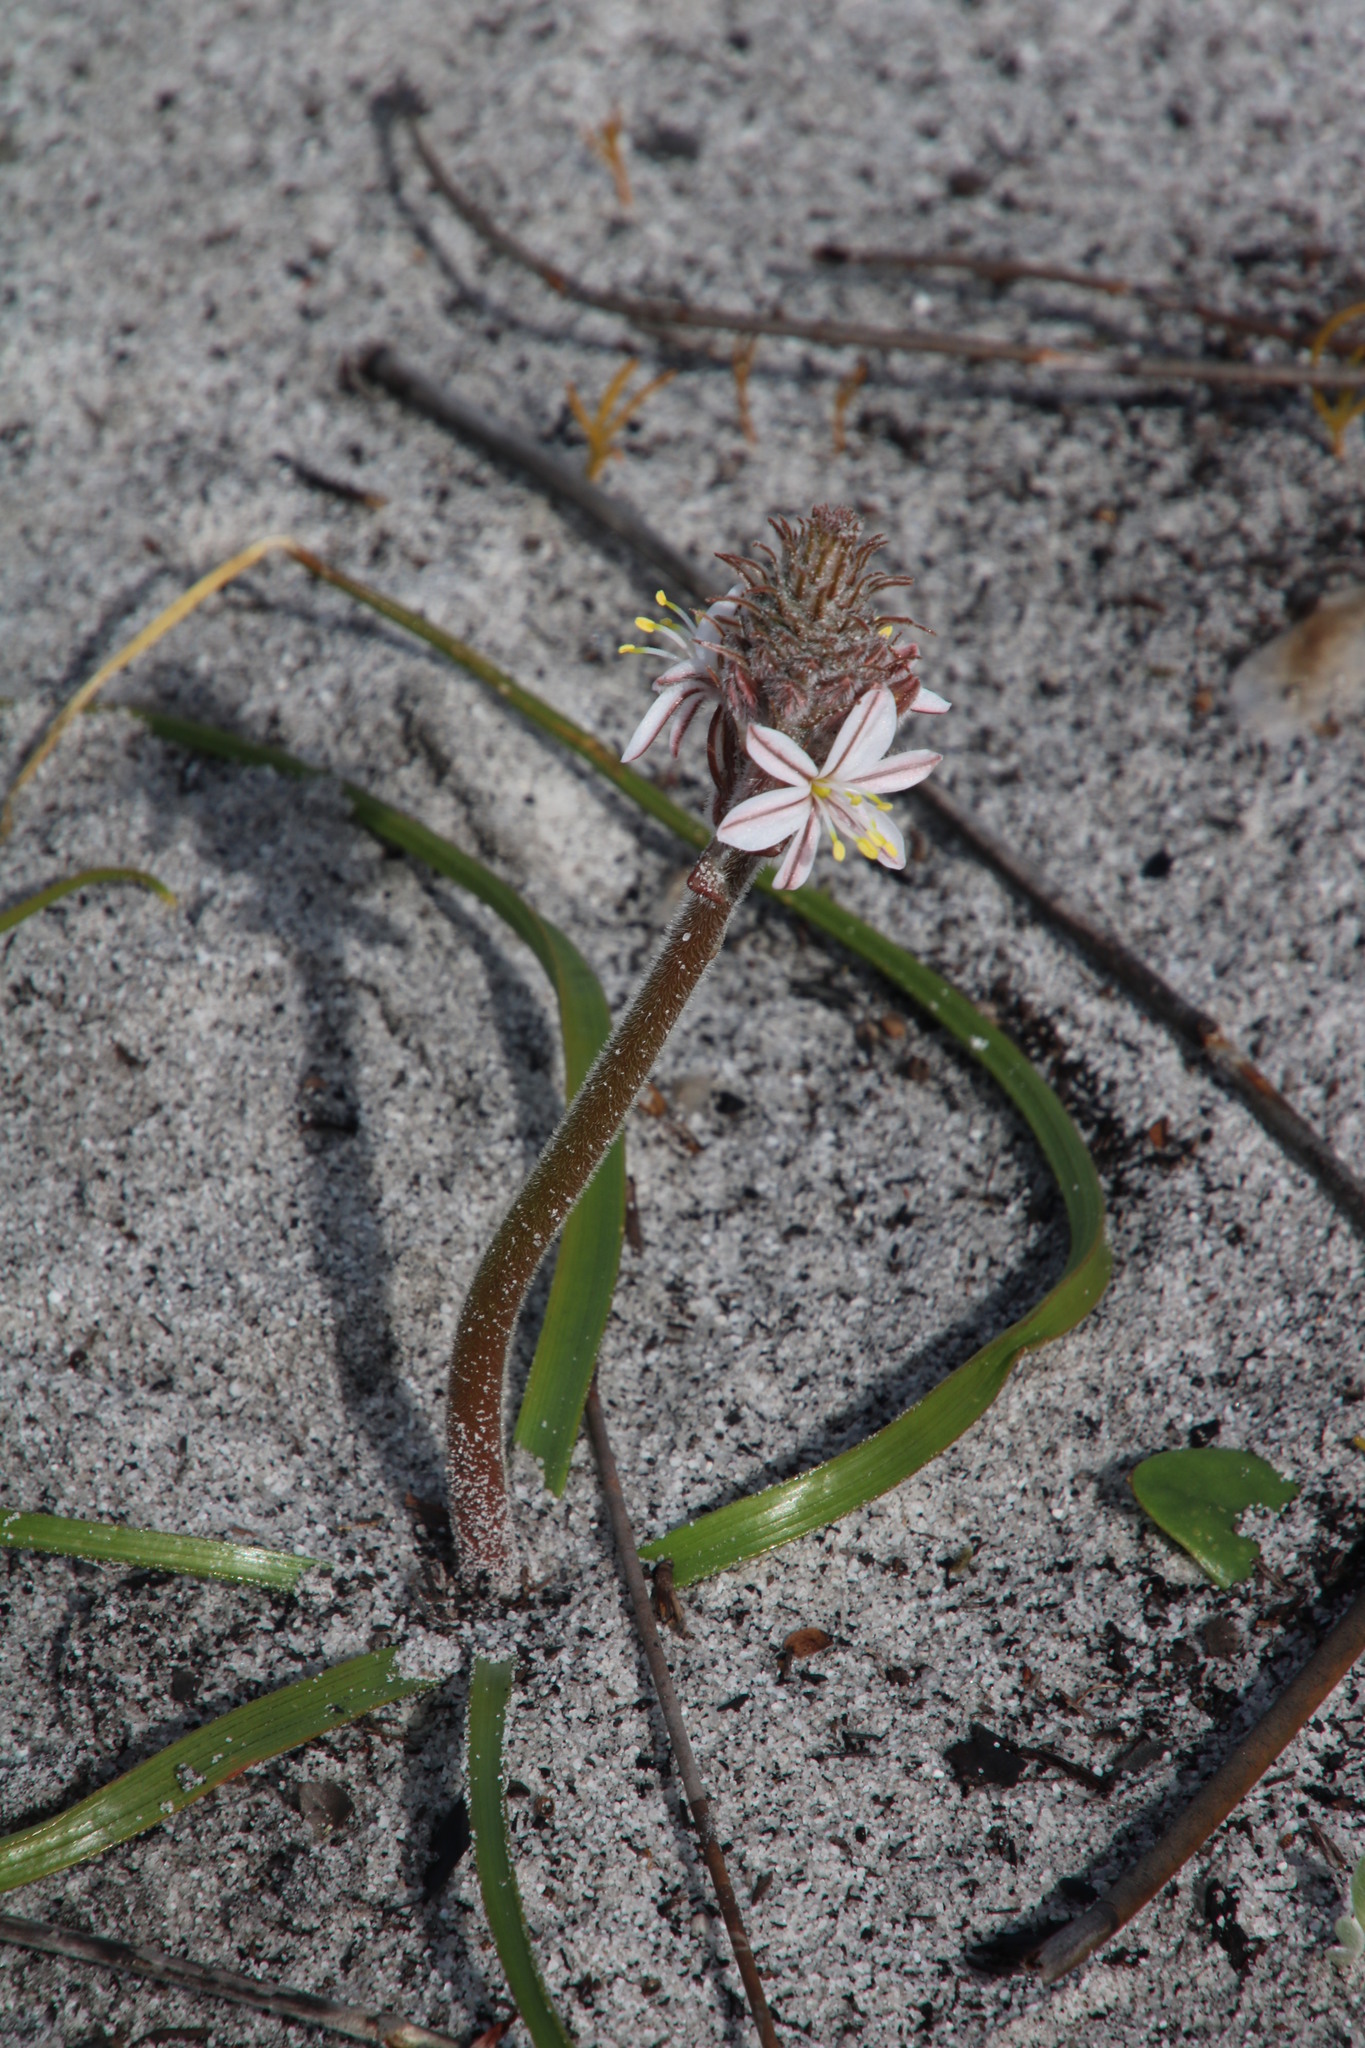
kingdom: Plantae
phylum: Tracheophyta
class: Liliopsida
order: Asparagales
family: Asphodelaceae
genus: Trachyandra
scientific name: Trachyandra hirsutiflora
